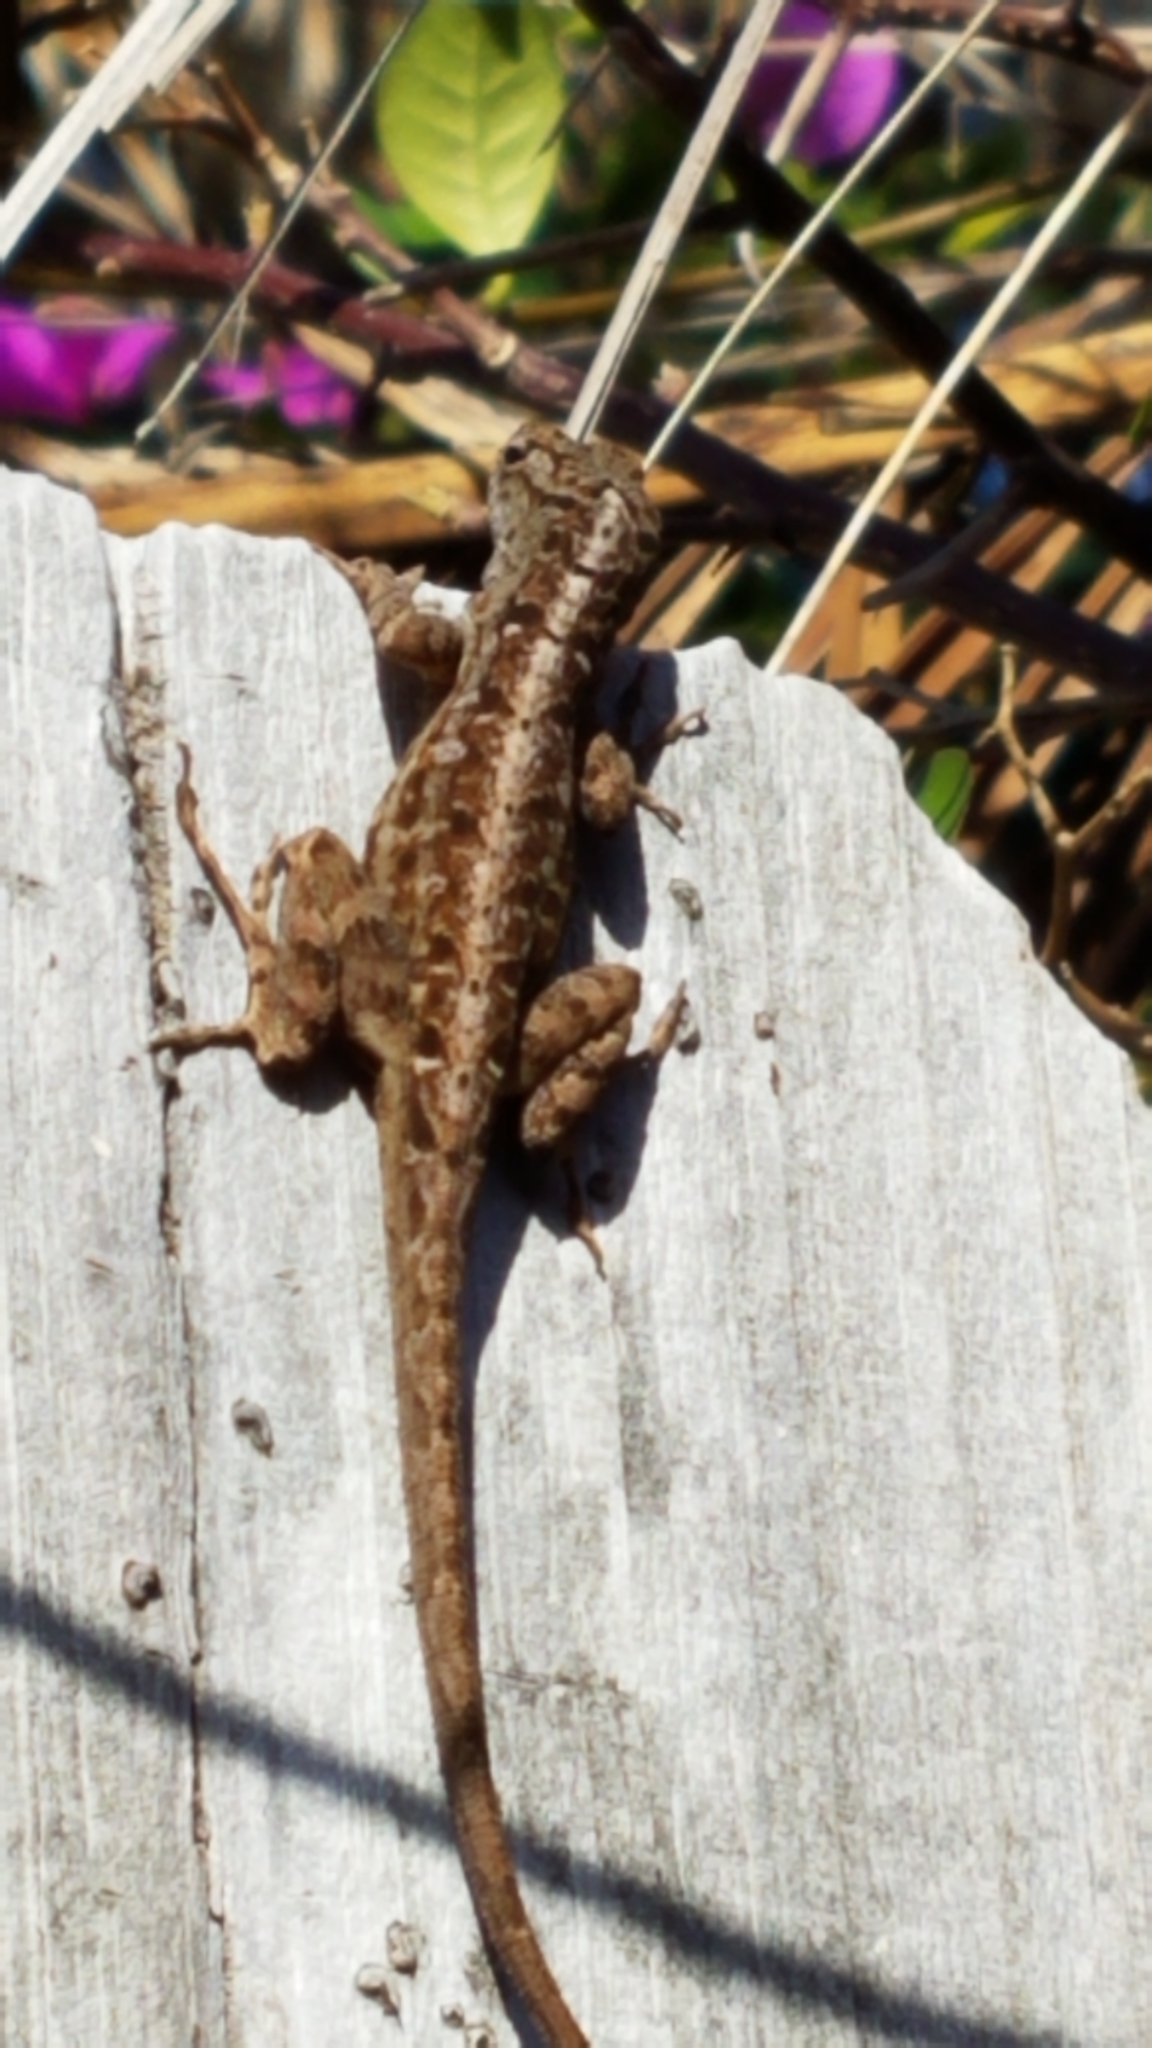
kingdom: Animalia
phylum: Chordata
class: Squamata
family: Dactyloidae
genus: Anolis
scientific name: Anolis sagrei
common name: Brown anole
